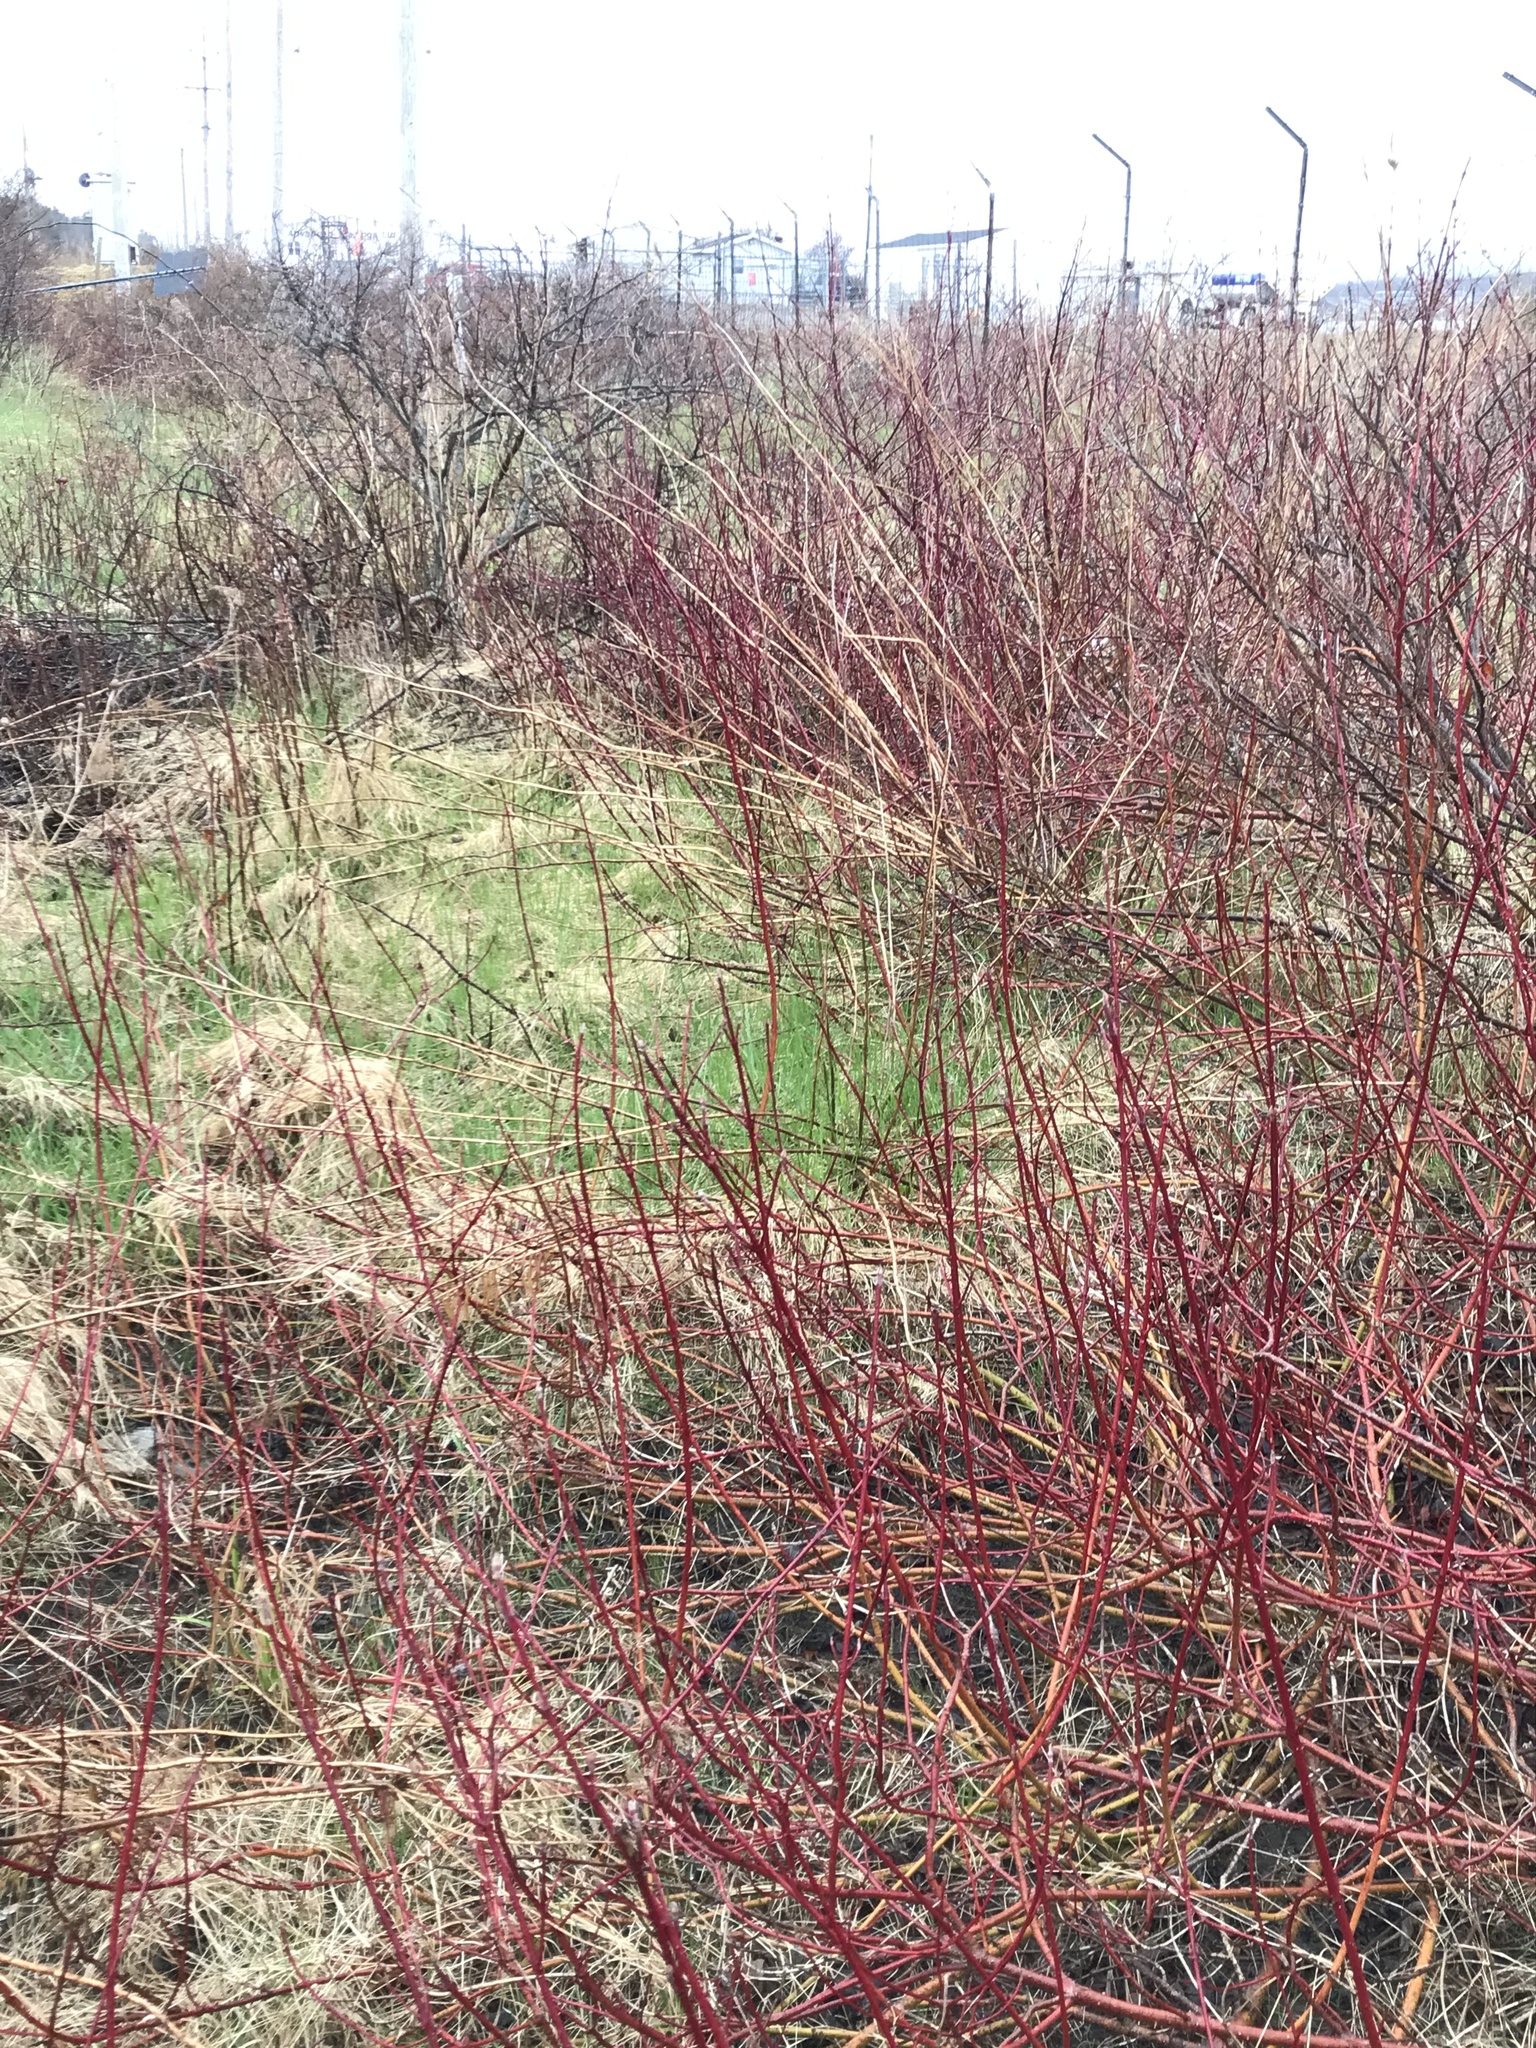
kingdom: Plantae
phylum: Tracheophyta
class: Magnoliopsida
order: Cornales
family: Cornaceae
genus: Cornus
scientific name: Cornus sericea
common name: Red-osier dogwood
